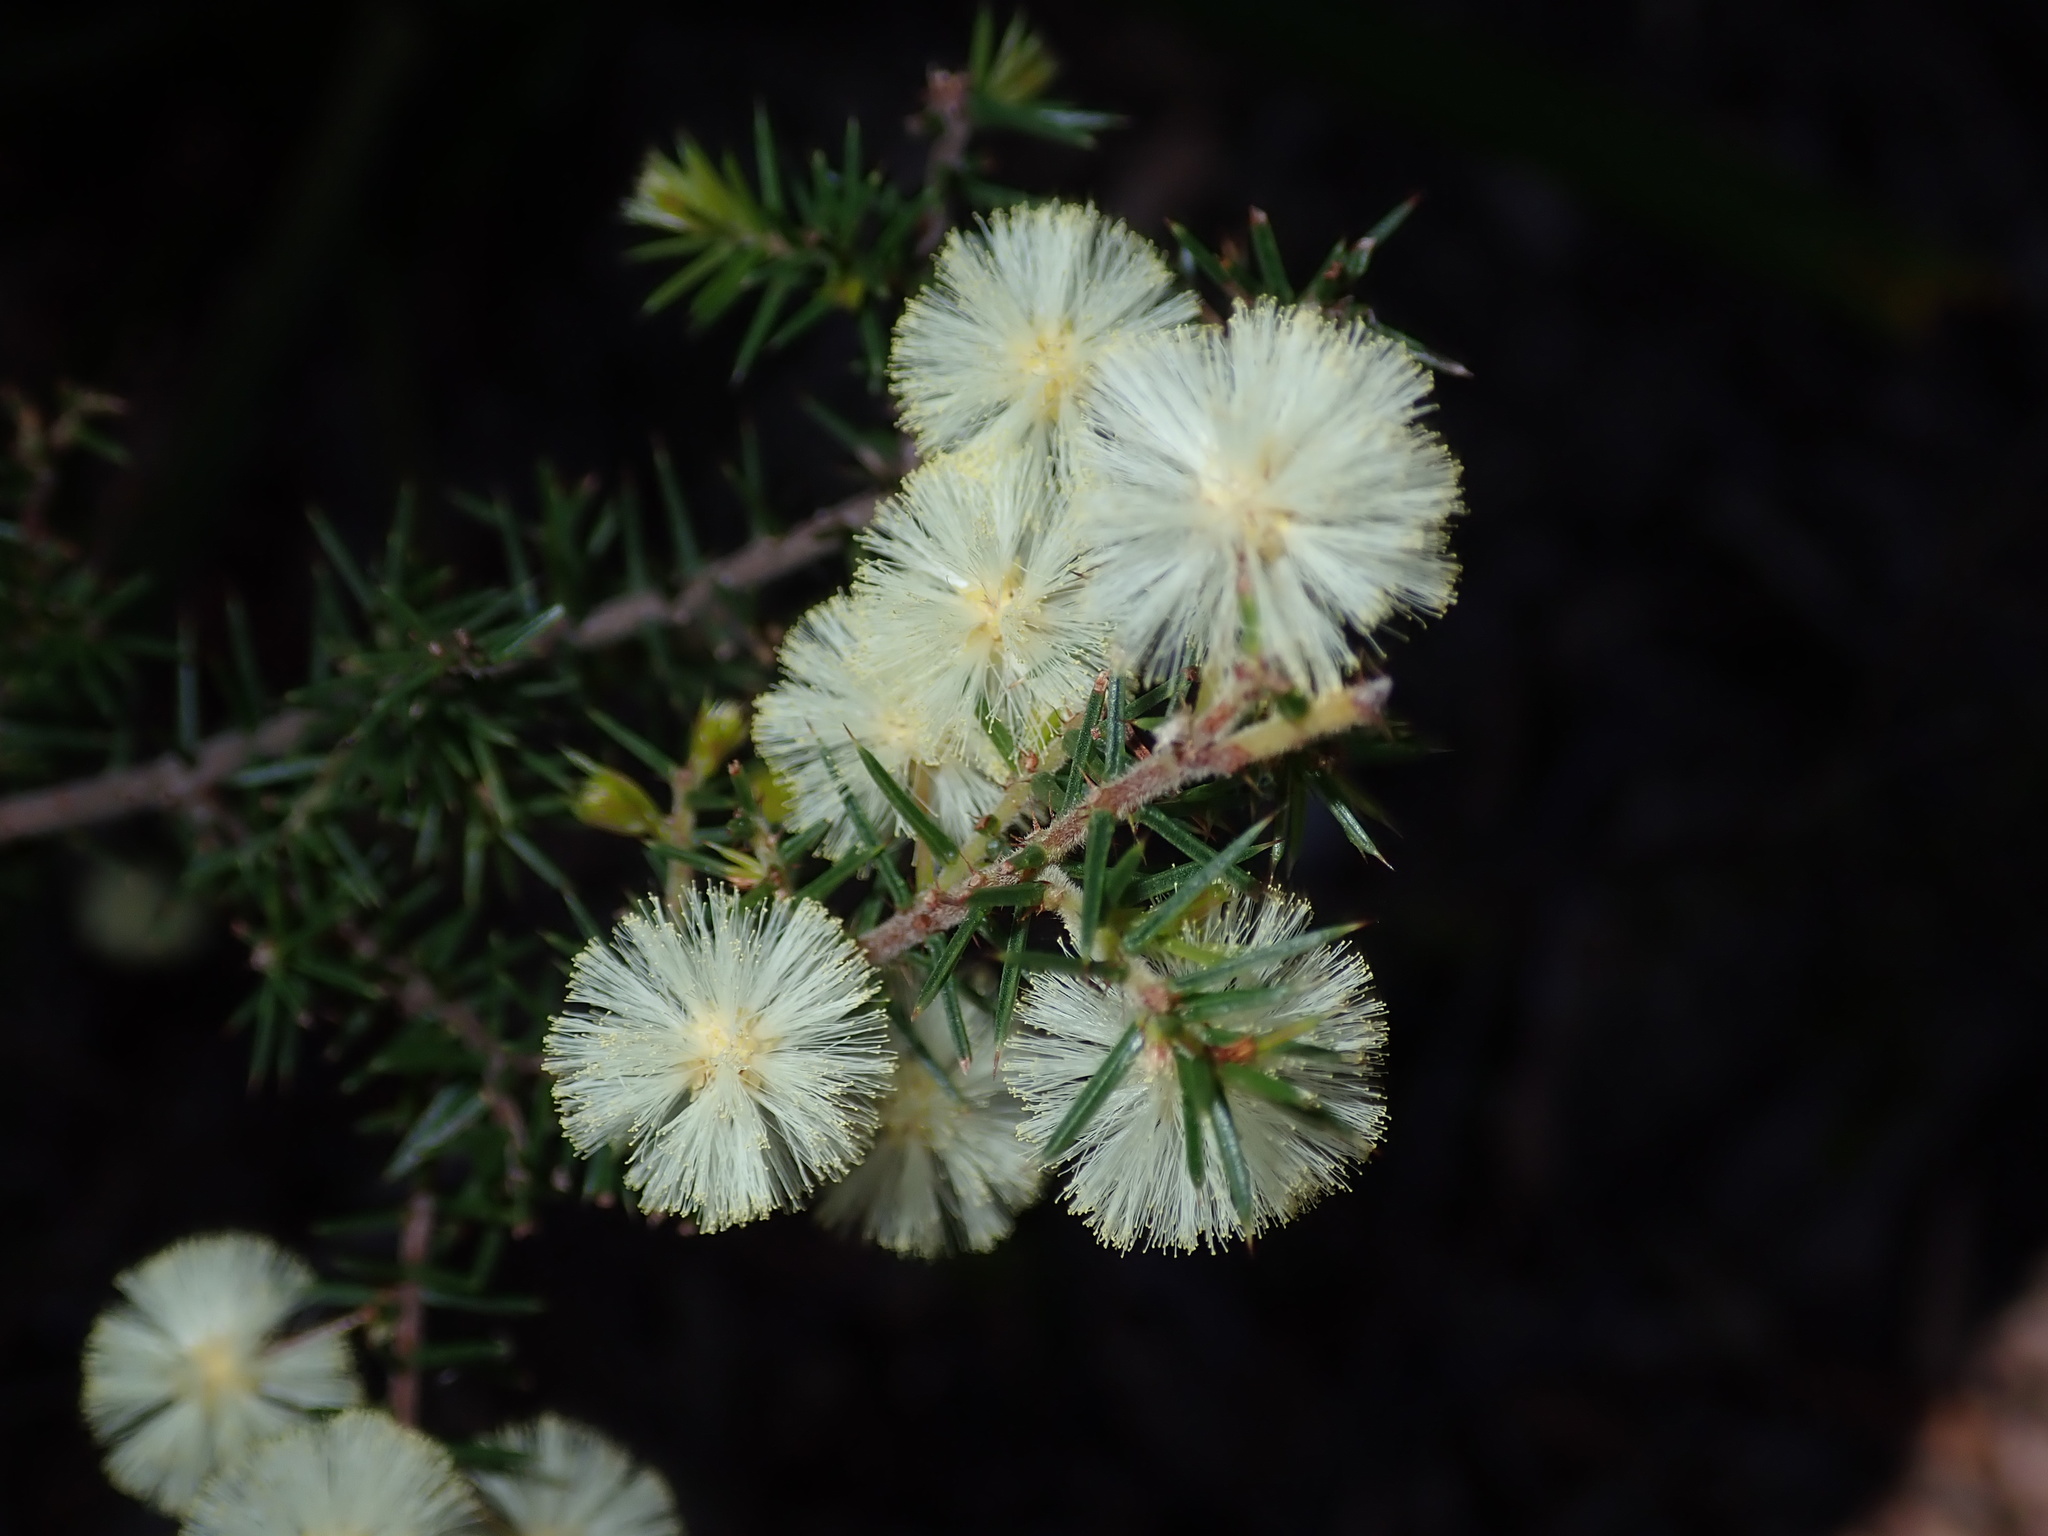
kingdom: Plantae
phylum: Tracheophyta
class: Magnoliopsida
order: Fabales
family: Fabaceae
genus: Acacia
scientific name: Acacia ulicifolia
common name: Juniper wattle
